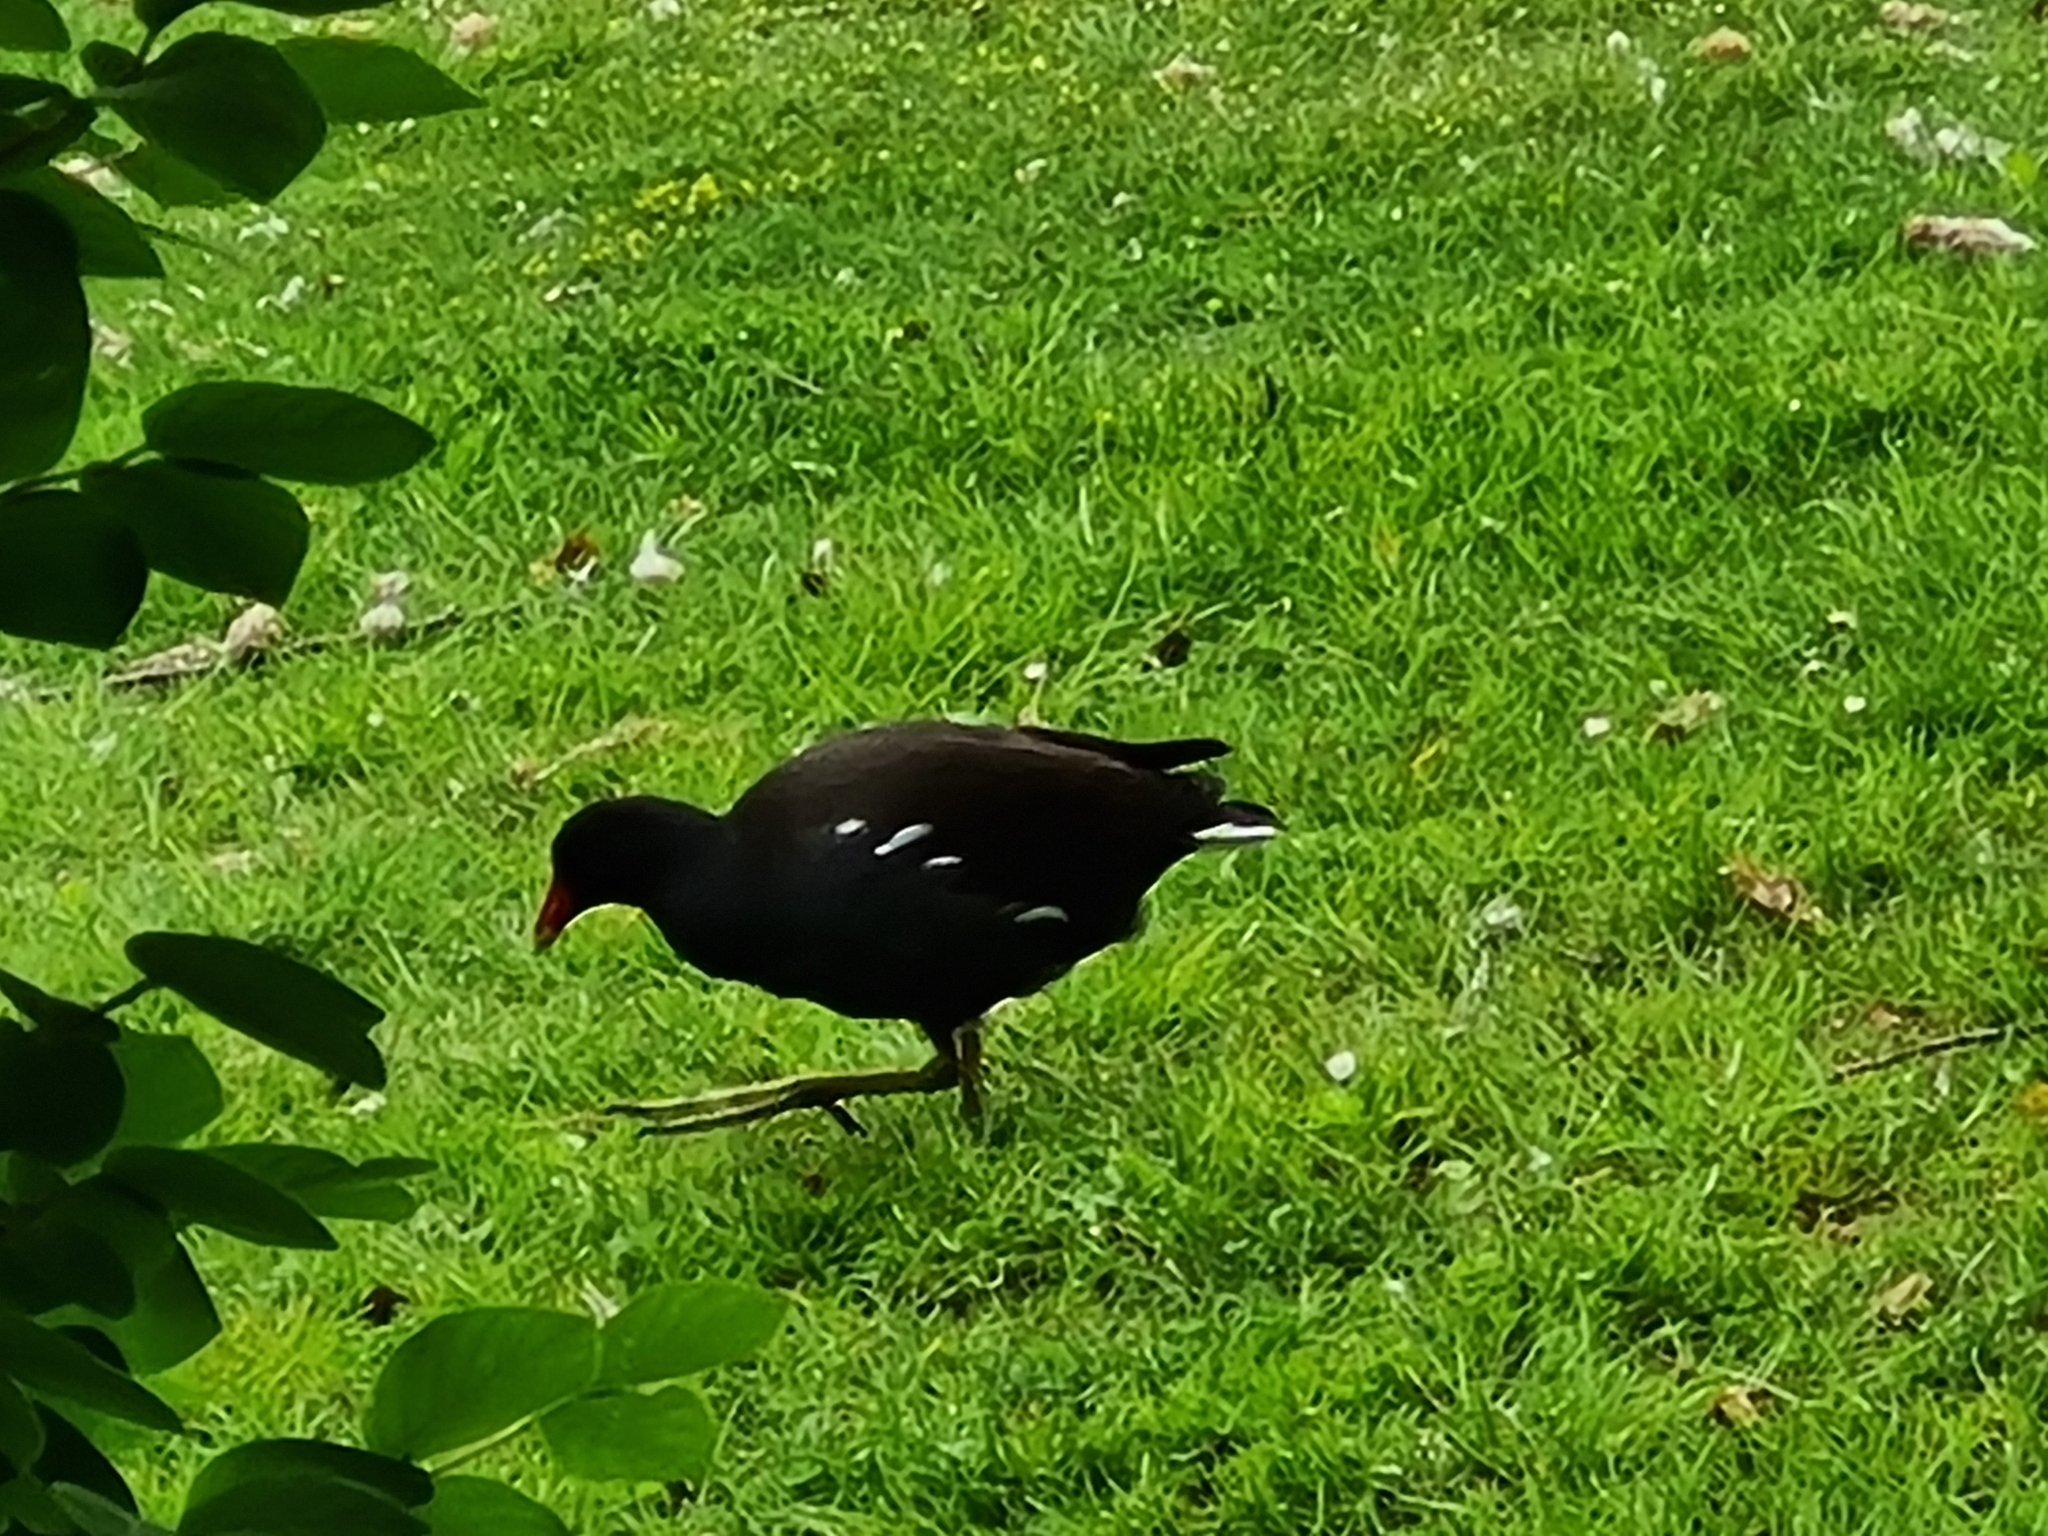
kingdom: Animalia
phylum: Chordata
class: Aves
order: Gruiformes
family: Rallidae
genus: Gallinula
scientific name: Gallinula chloropus
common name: Common moorhen
